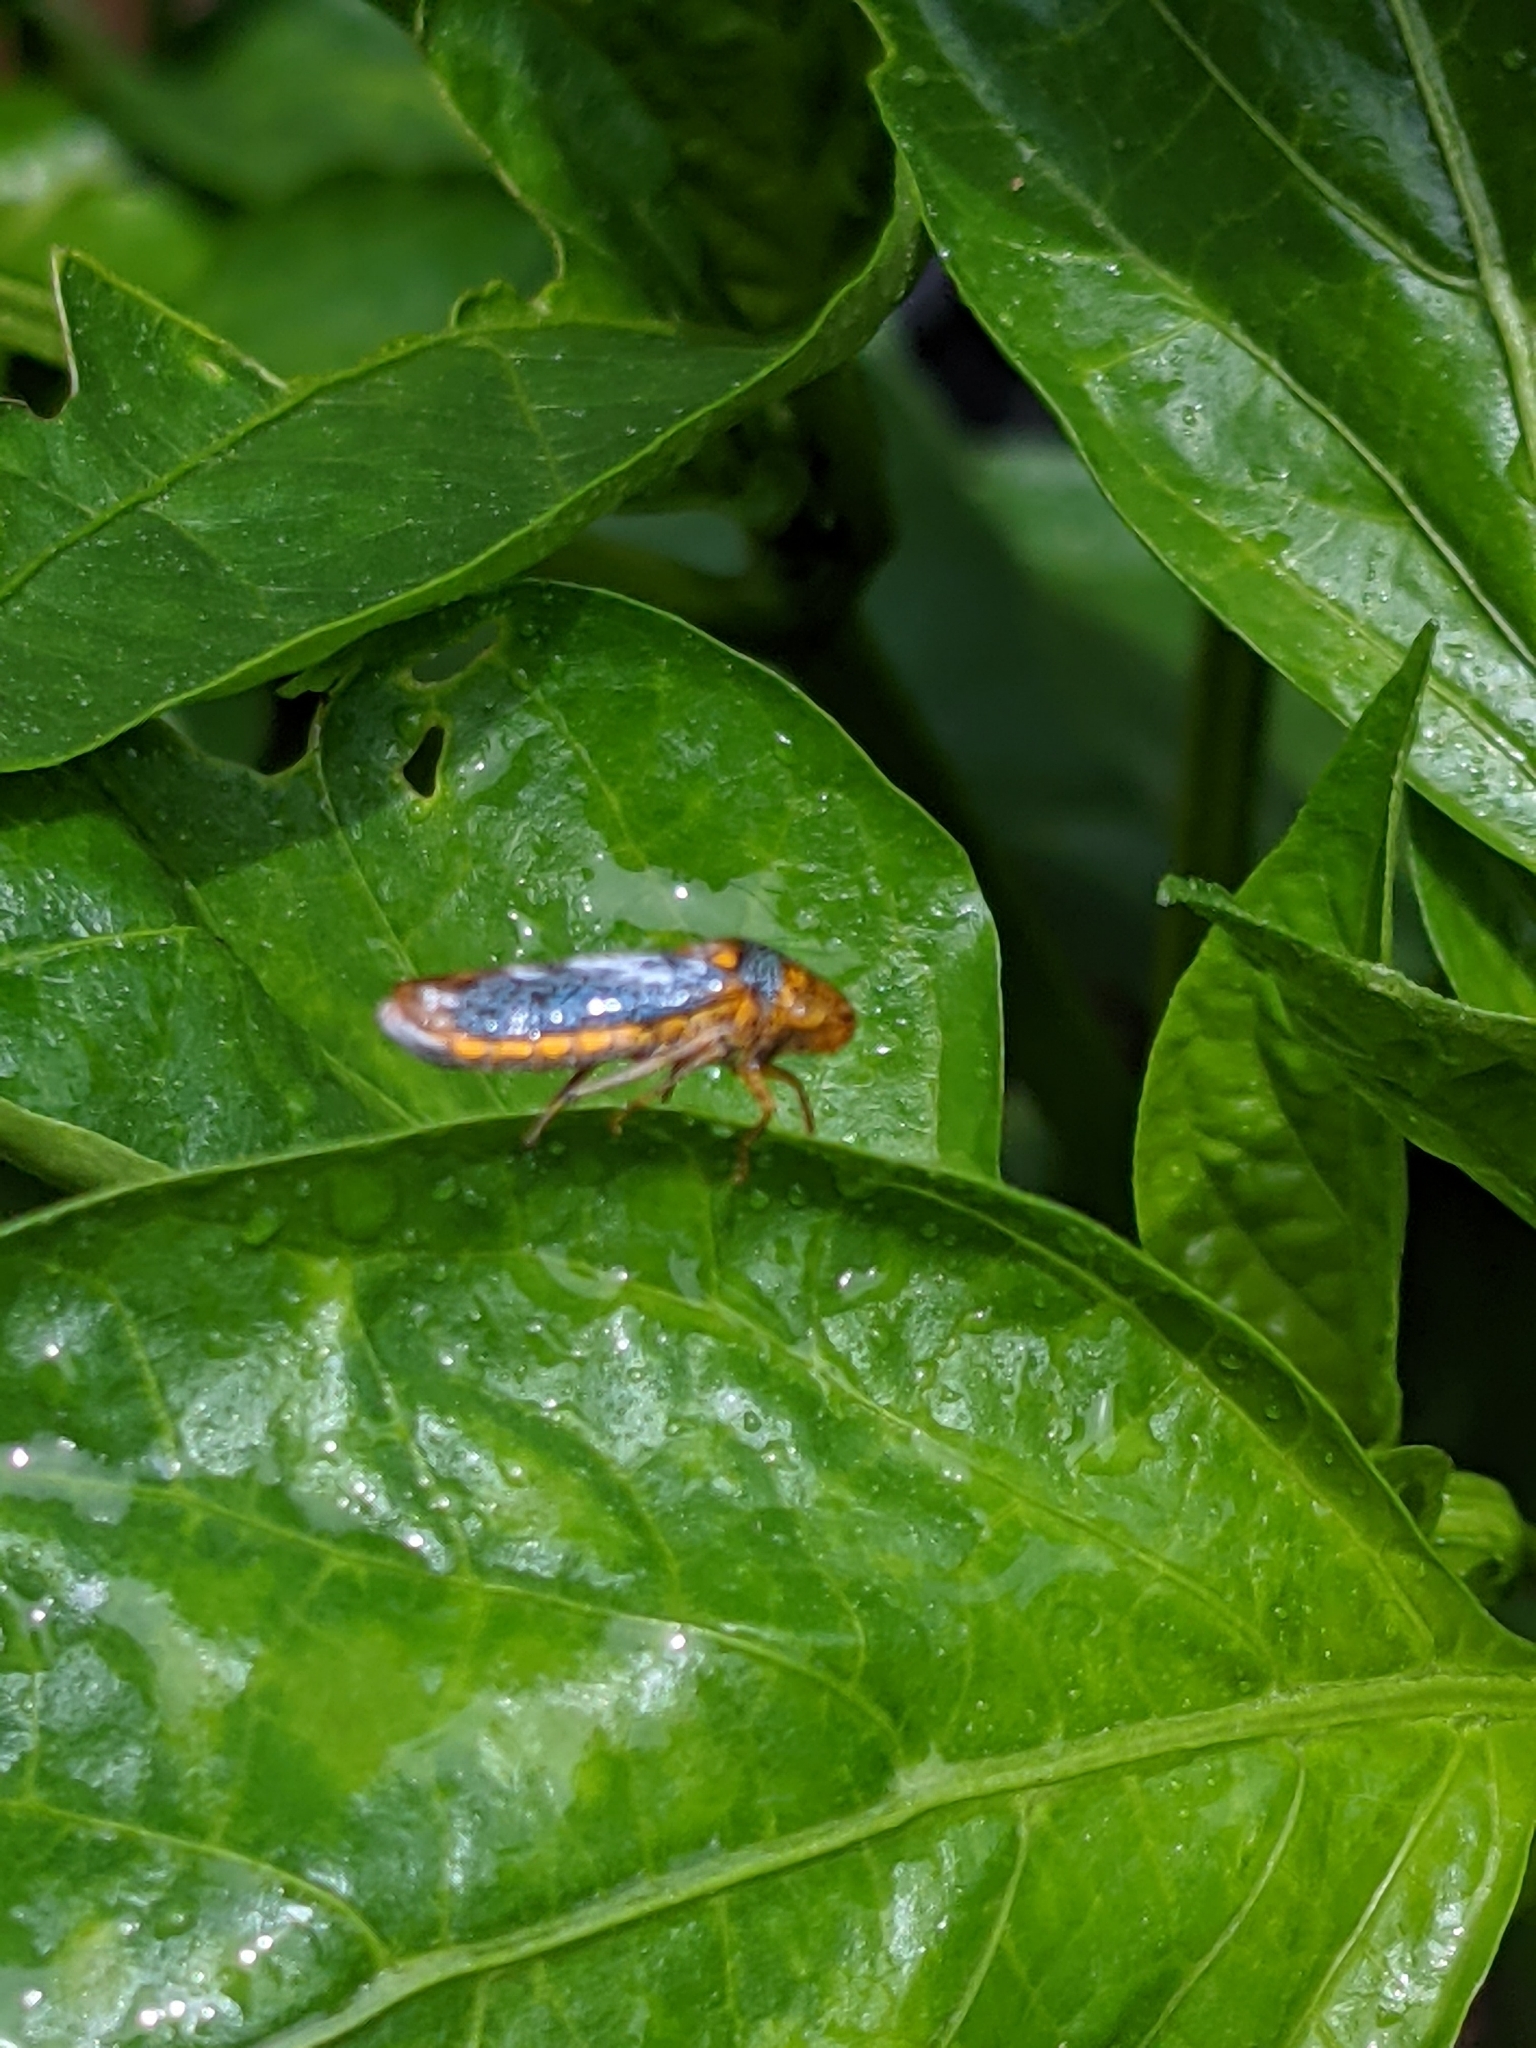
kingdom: Animalia
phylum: Arthropoda
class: Insecta
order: Hemiptera
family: Cicadellidae
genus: Oncometopia
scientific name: Oncometopia orbona
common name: Broad-headed sharpshooter
